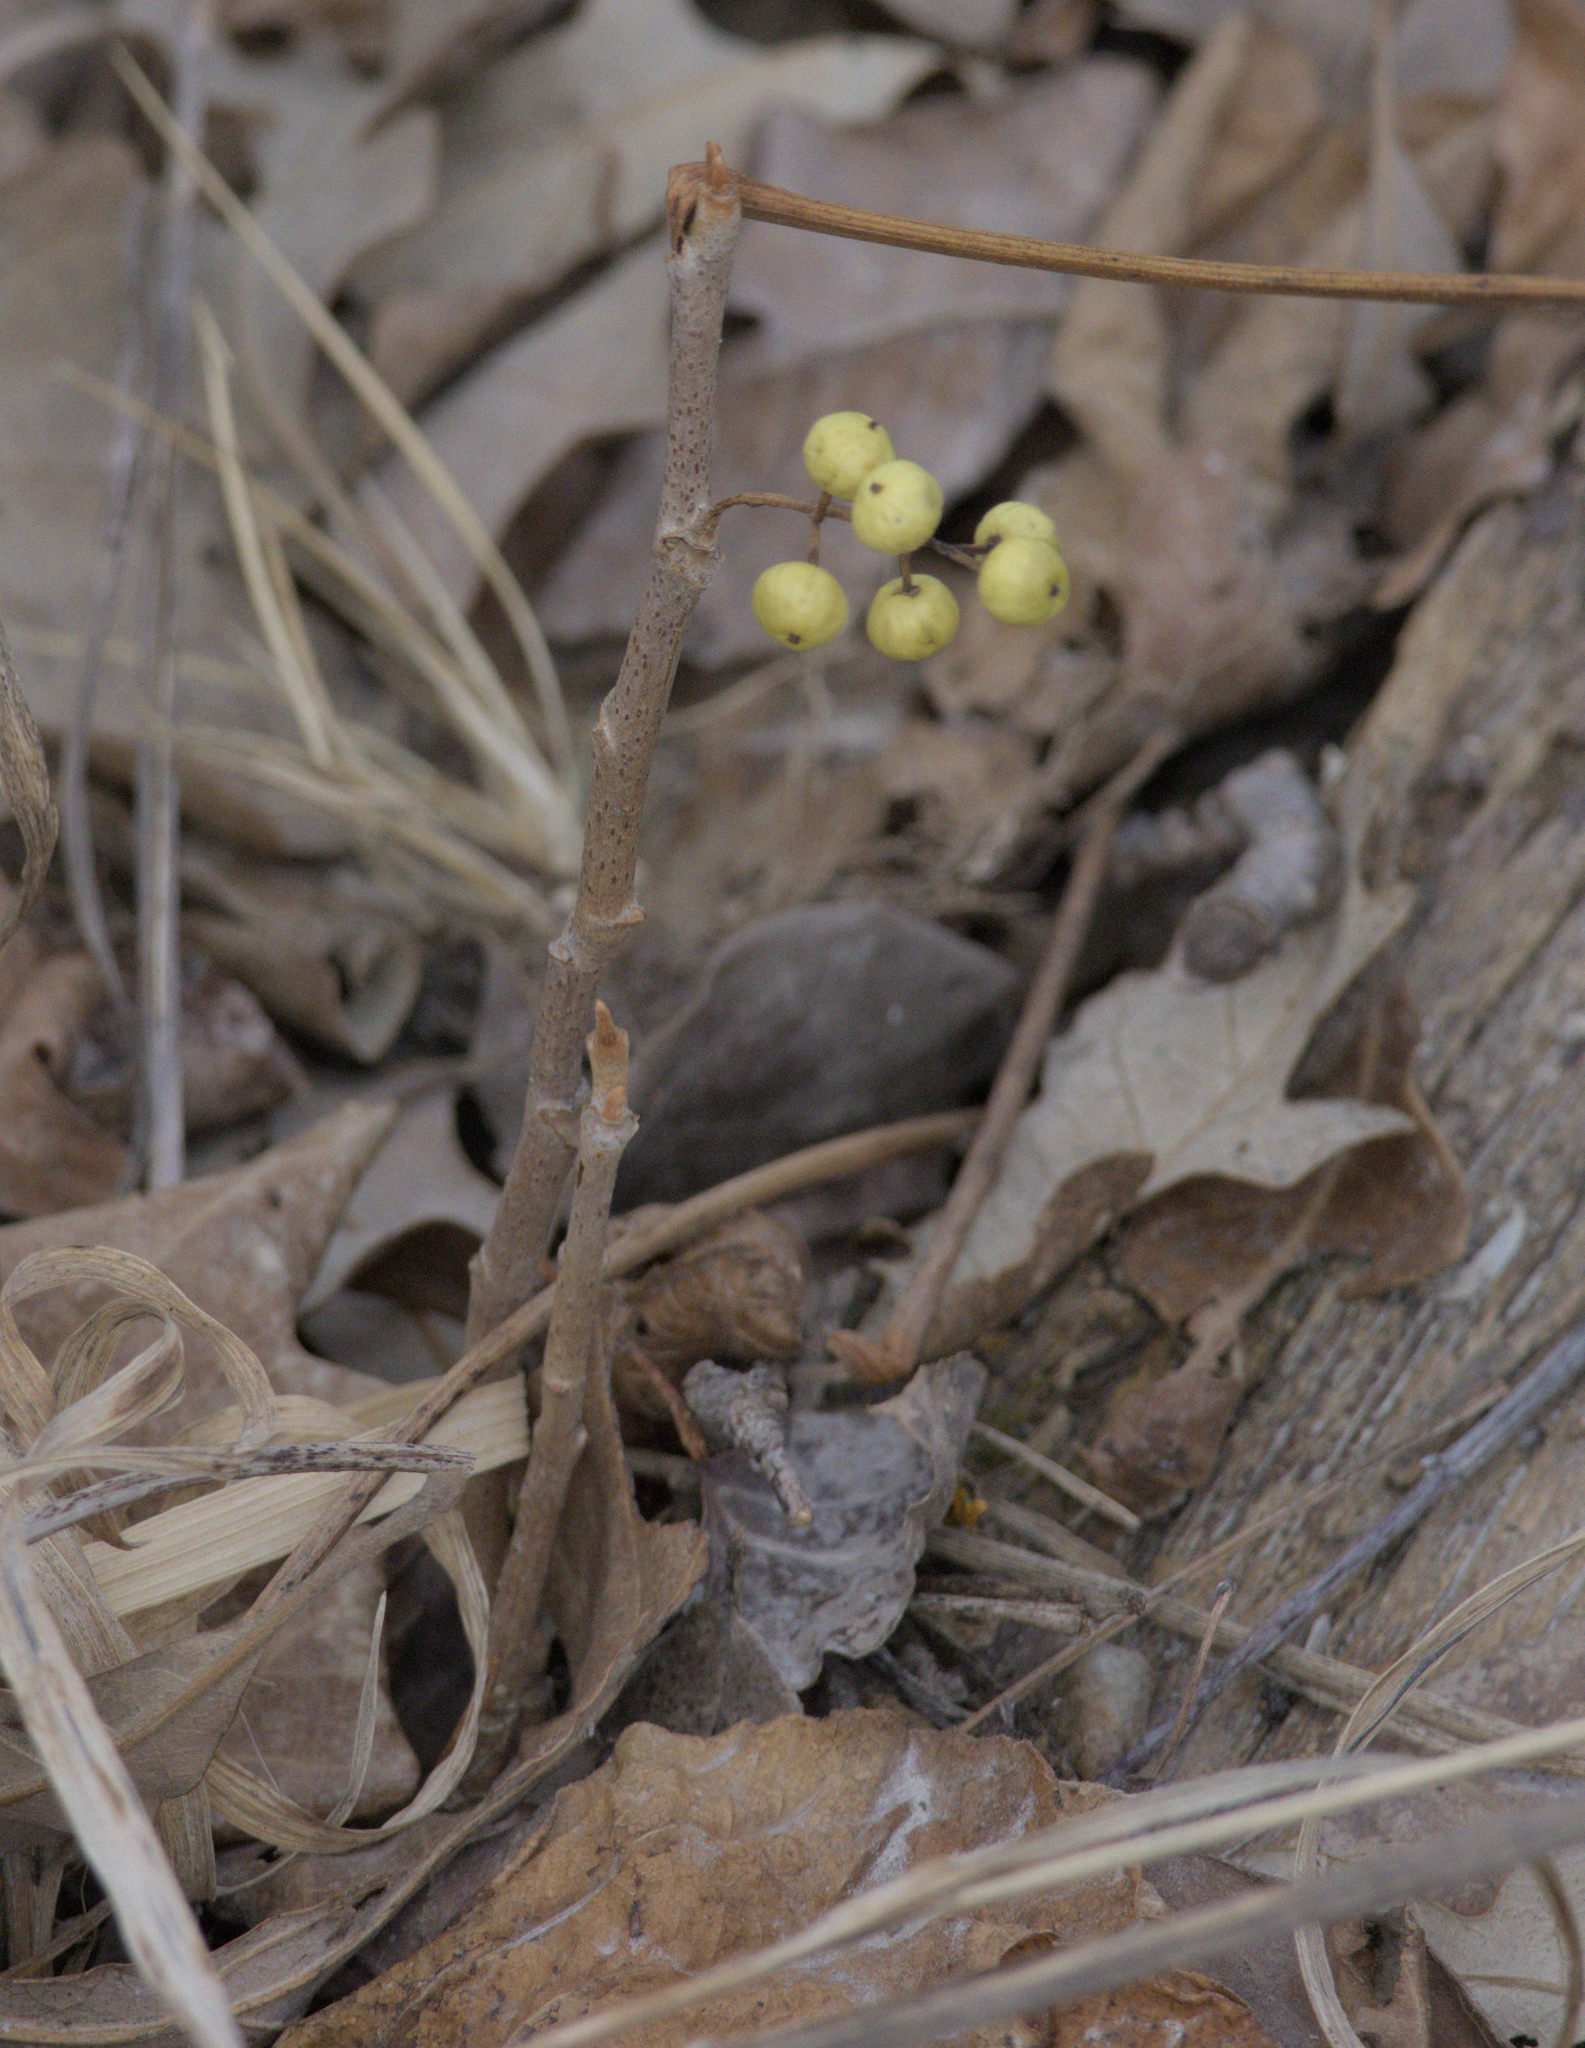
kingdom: Plantae
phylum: Tracheophyta
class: Magnoliopsida
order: Sapindales
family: Anacardiaceae
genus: Toxicodendron
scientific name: Toxicodendron rydbergii
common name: Rydberg's poison-ivy
